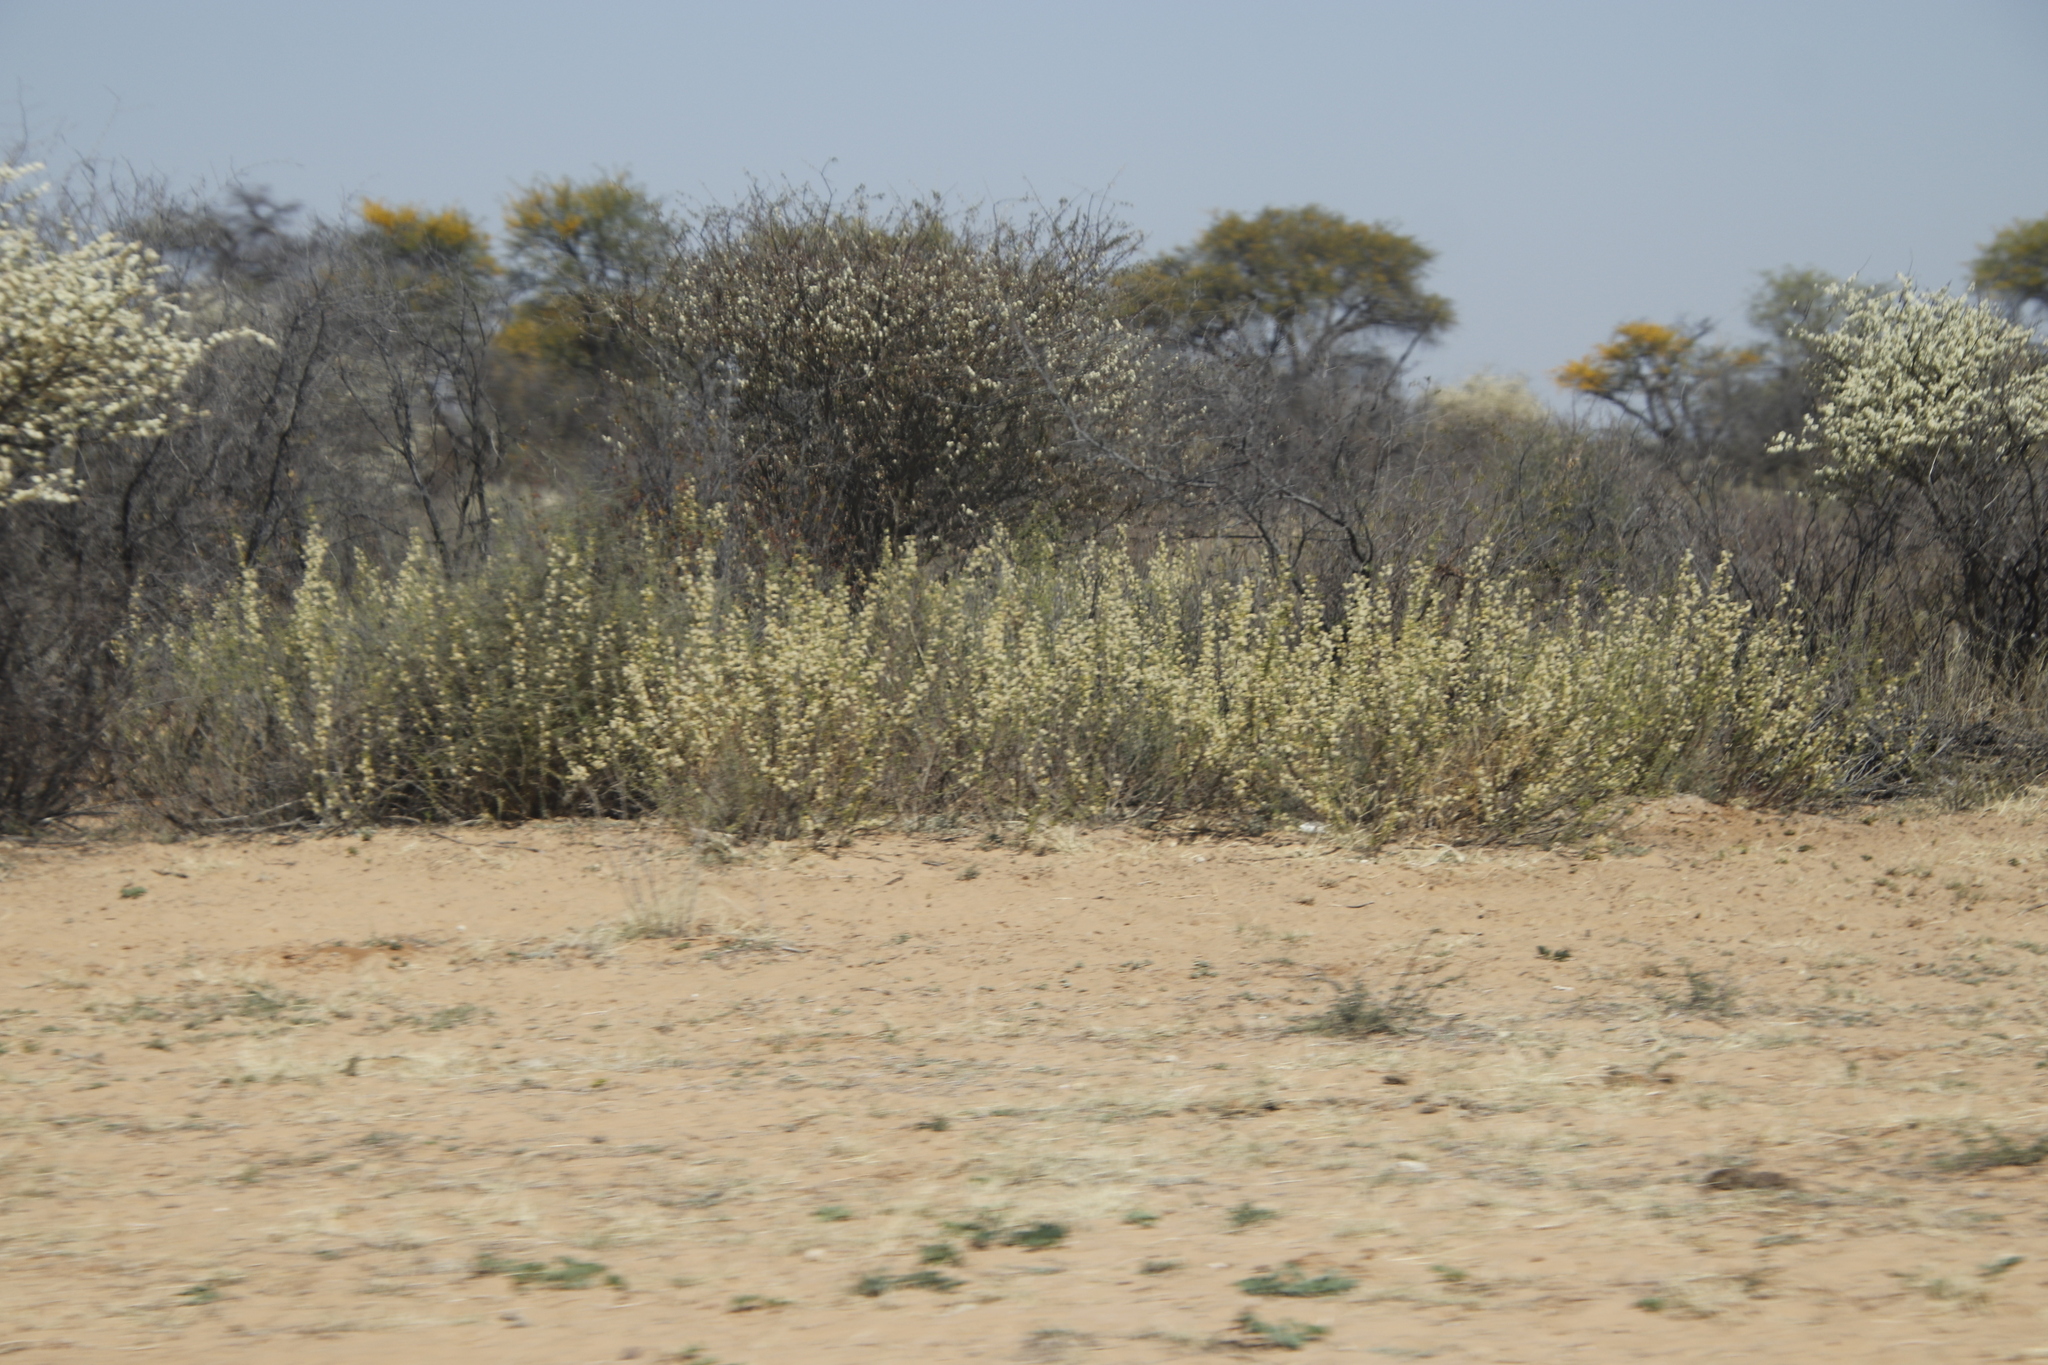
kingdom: Plantae
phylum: Tracheophyta
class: Magnoliopsida
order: Fabales
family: Fabaceae
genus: Vachellia
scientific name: Vachellia hebeclada
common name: Candle thorn
